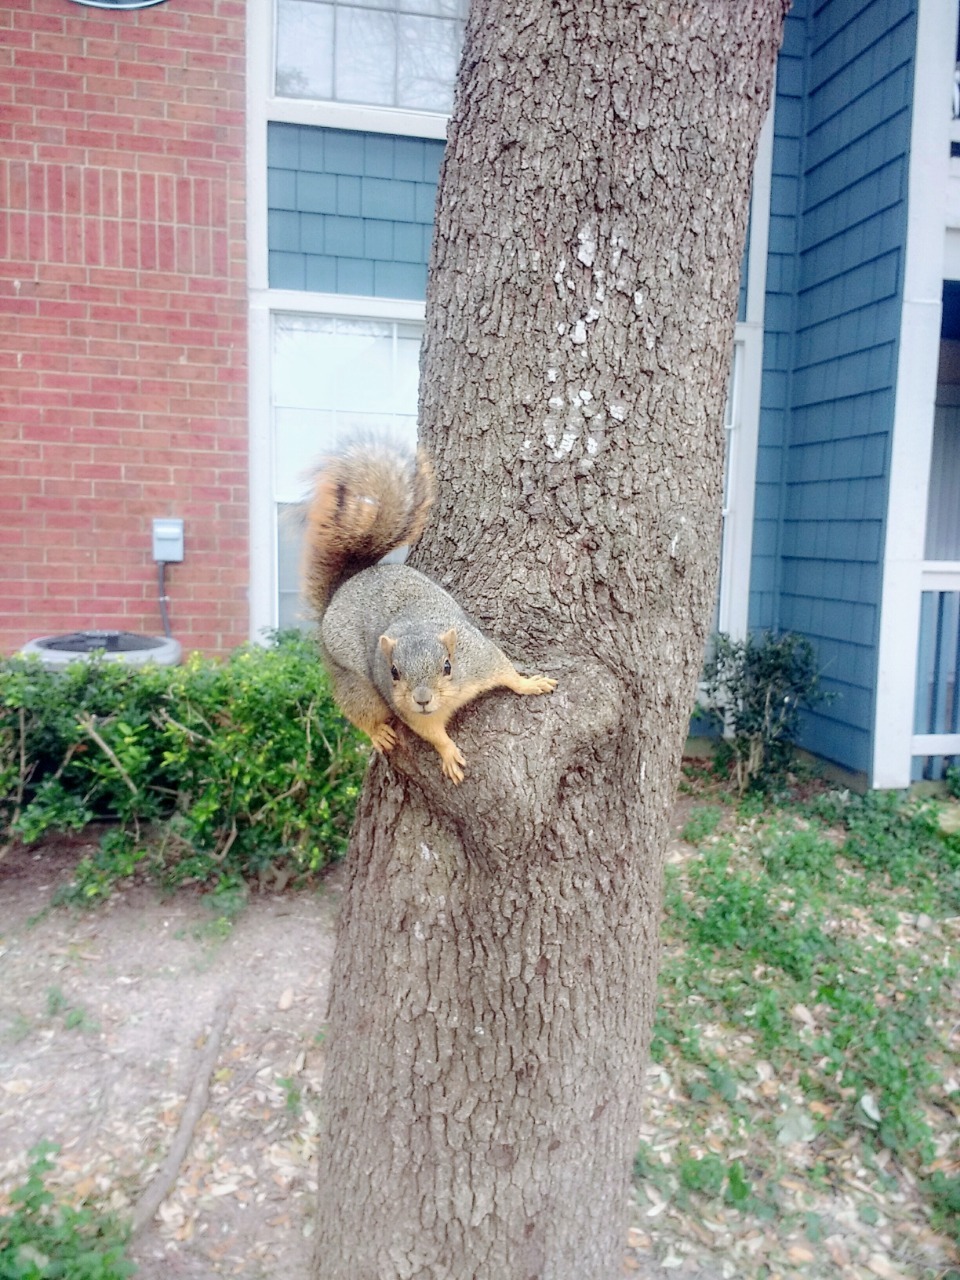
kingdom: Animalia
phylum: Chordata
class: Mammalia
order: Rodentia
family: Sciuridae
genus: Sciurus
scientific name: Sciurus niger
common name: Fox squirrel
